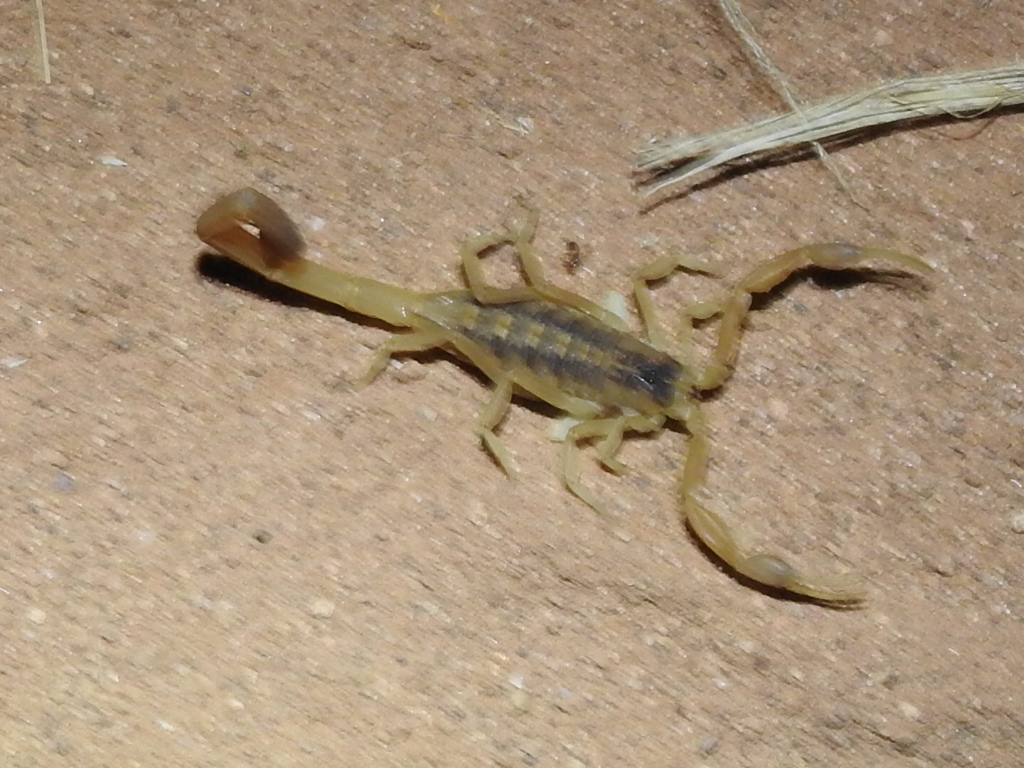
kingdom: Animalia
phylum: Arthropoda
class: Arachnida
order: Scorpiones
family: Buthidae
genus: Centruroides
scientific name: Centruroides vittatus
